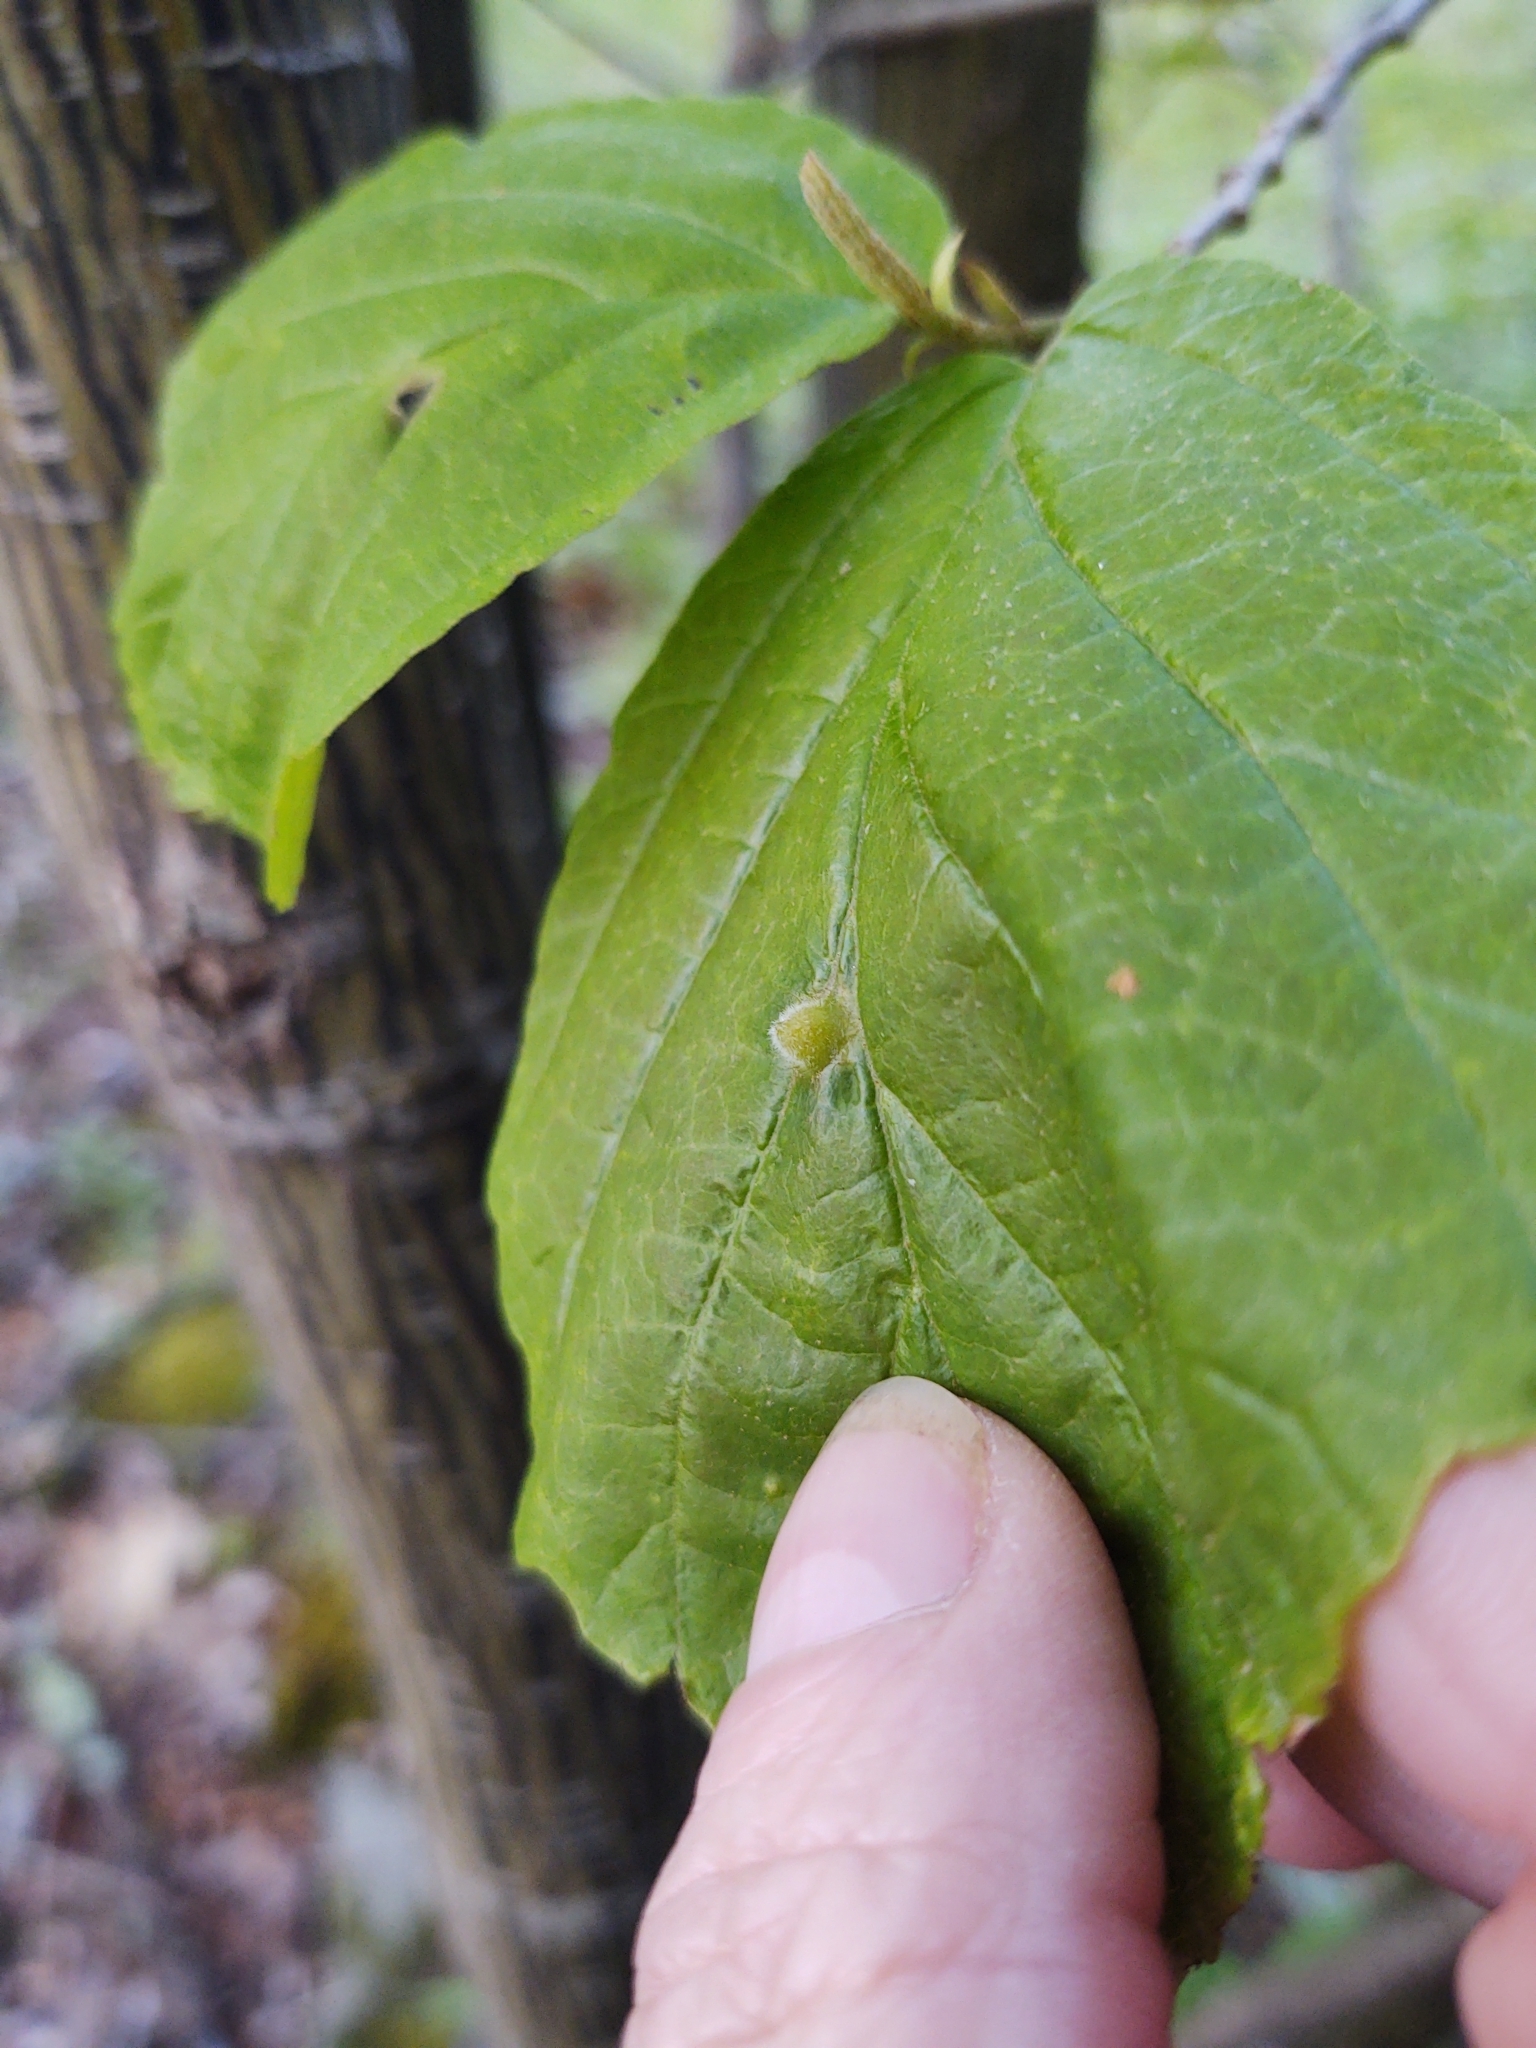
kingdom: Animalia
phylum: Arthropoda
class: Insecta
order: Hemiptera
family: Aphididae
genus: Hormaphis
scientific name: Hormaphis hamamelidis
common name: Witch-hazel cone gall aphid
